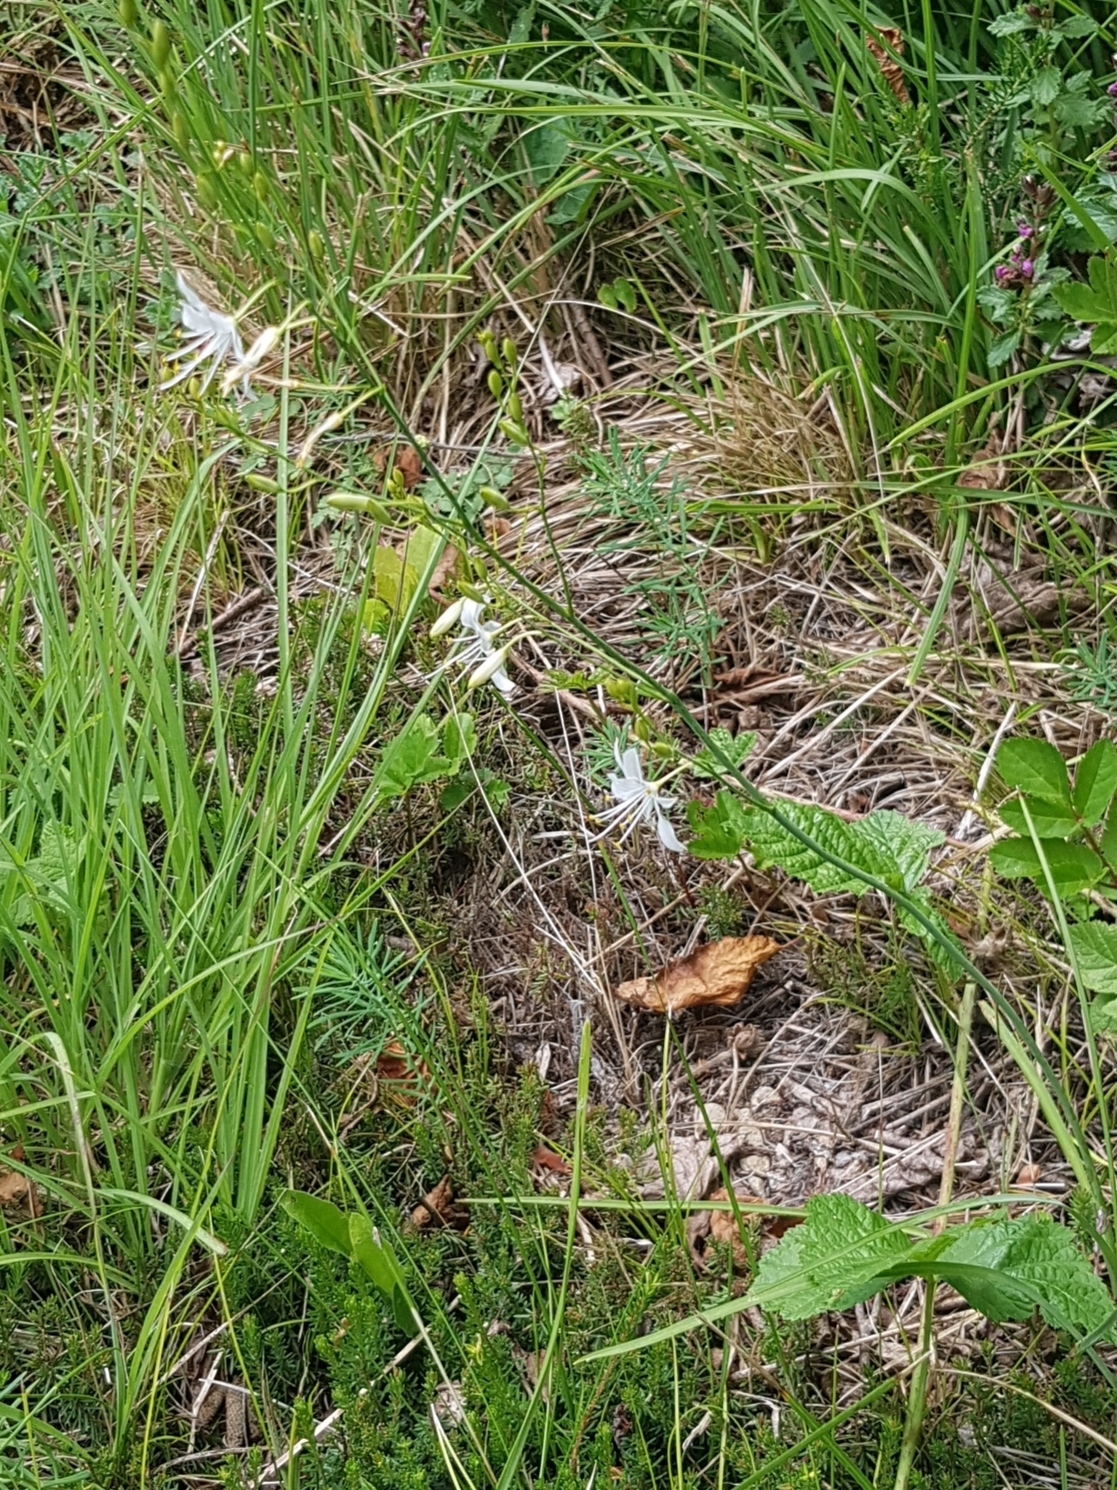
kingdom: Plantae
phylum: Tracheophyta
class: Liliopsida
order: Asparagales
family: Asparagaceae
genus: Anthericum
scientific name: Anthericum ramosum
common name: Branched st. bernard's-lily
